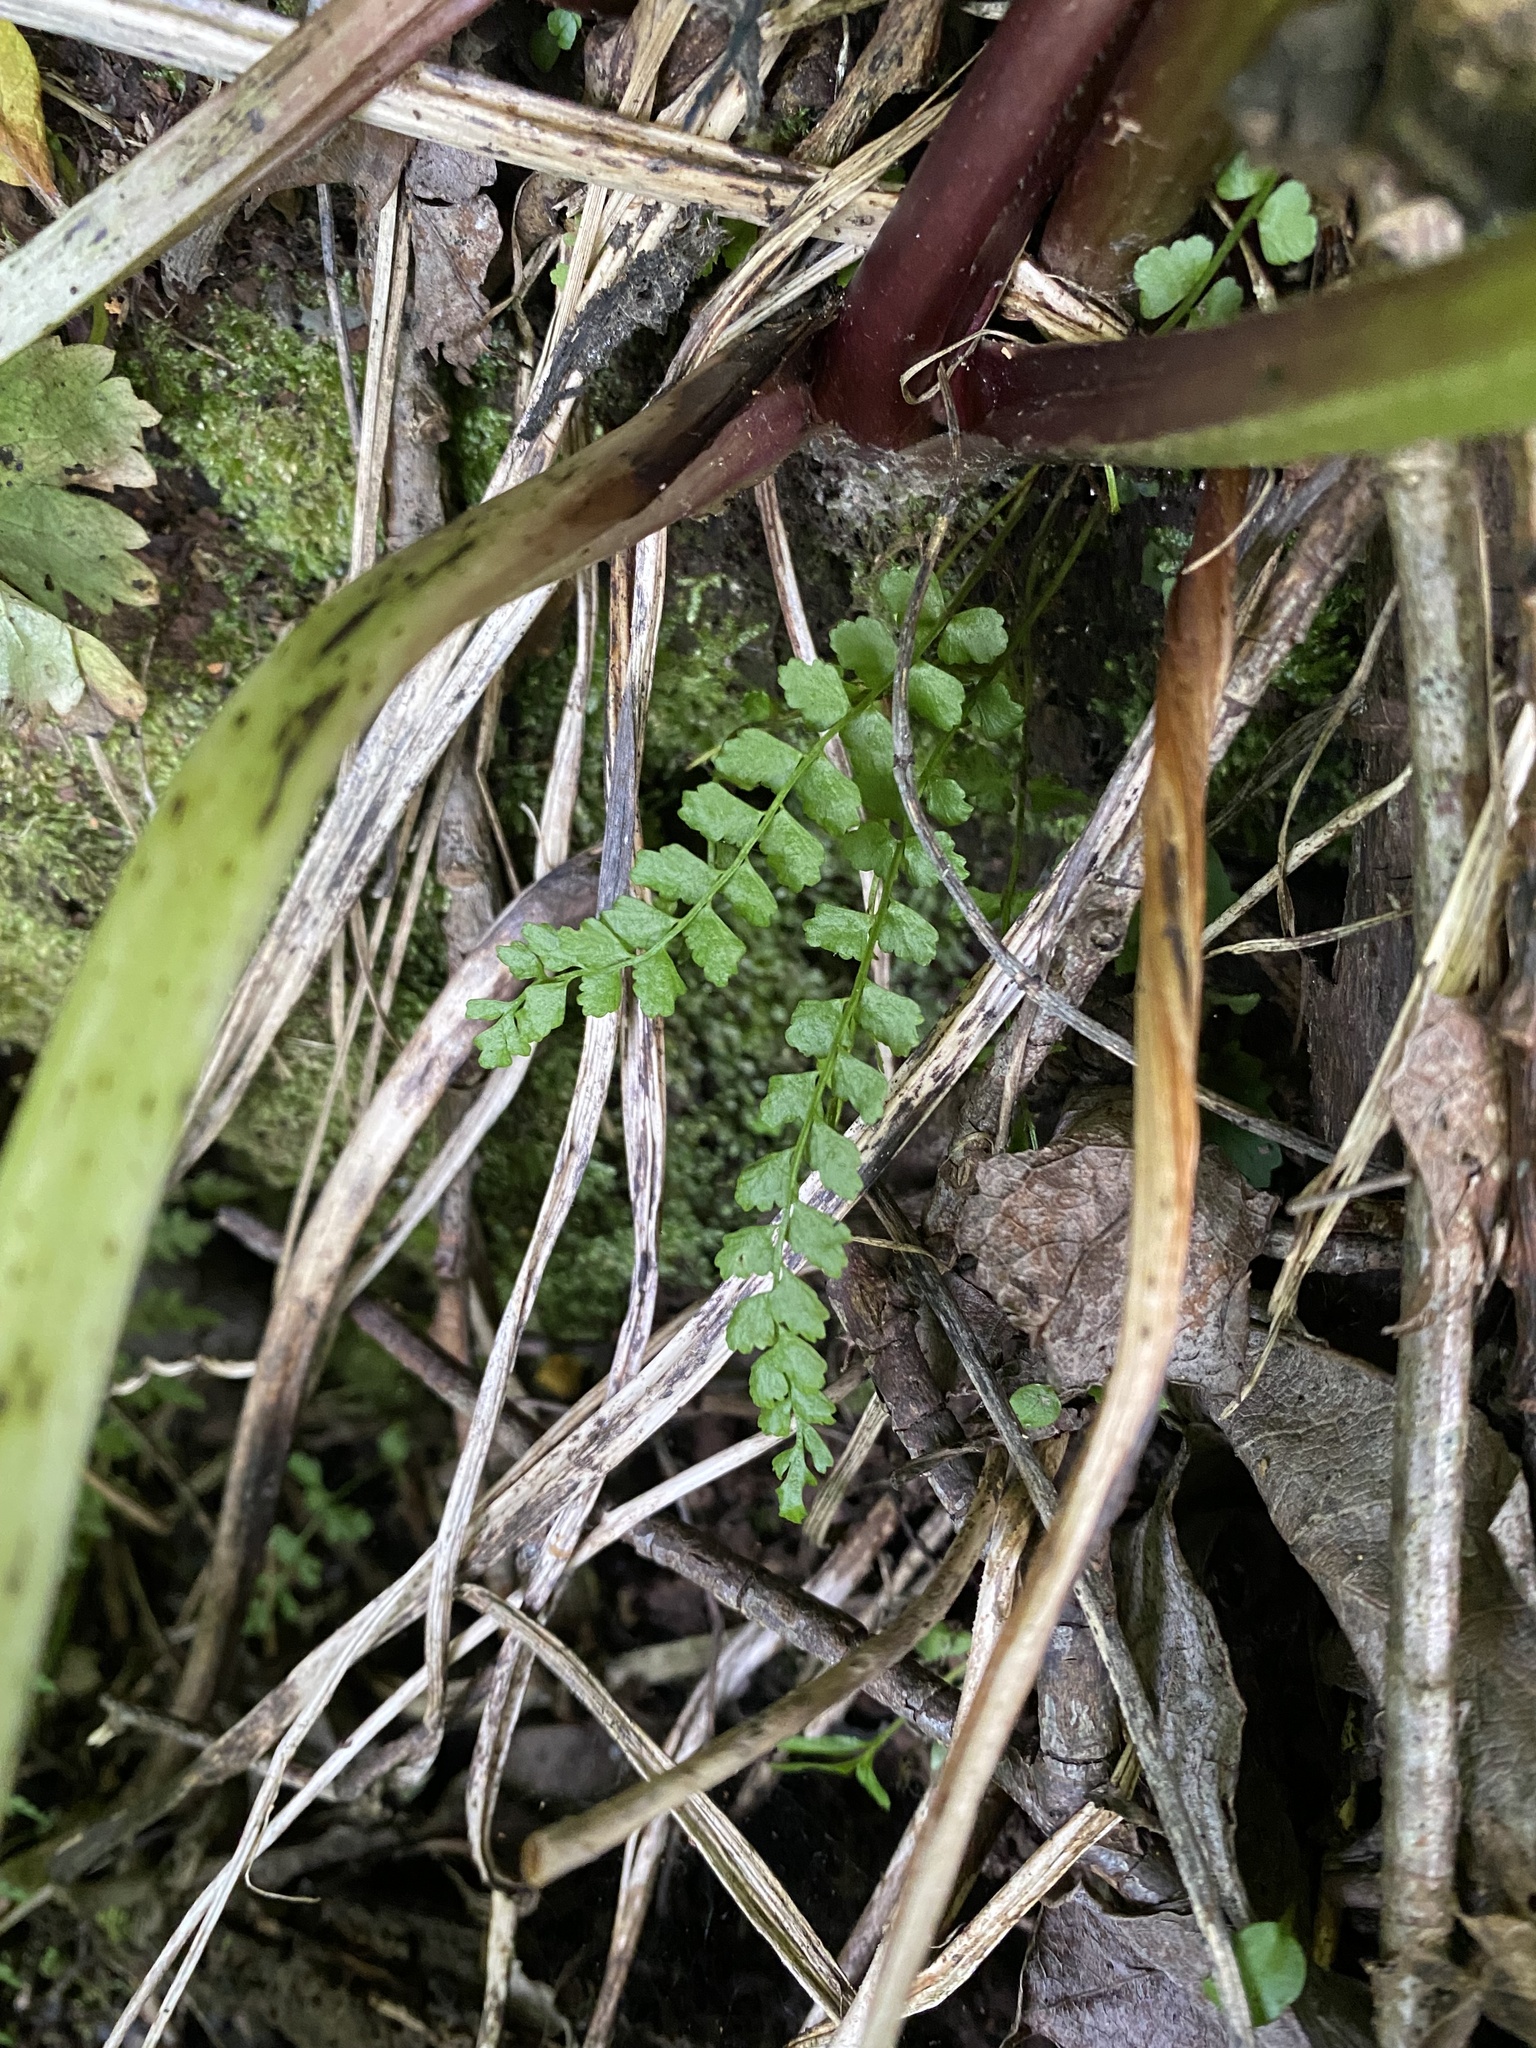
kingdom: Plantae
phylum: Tracheophyta
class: Polypodiopsida
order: Polypodiales
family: Aspleniaceae
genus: Asplenium
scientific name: Asplenium viride
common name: Green spleenwort
